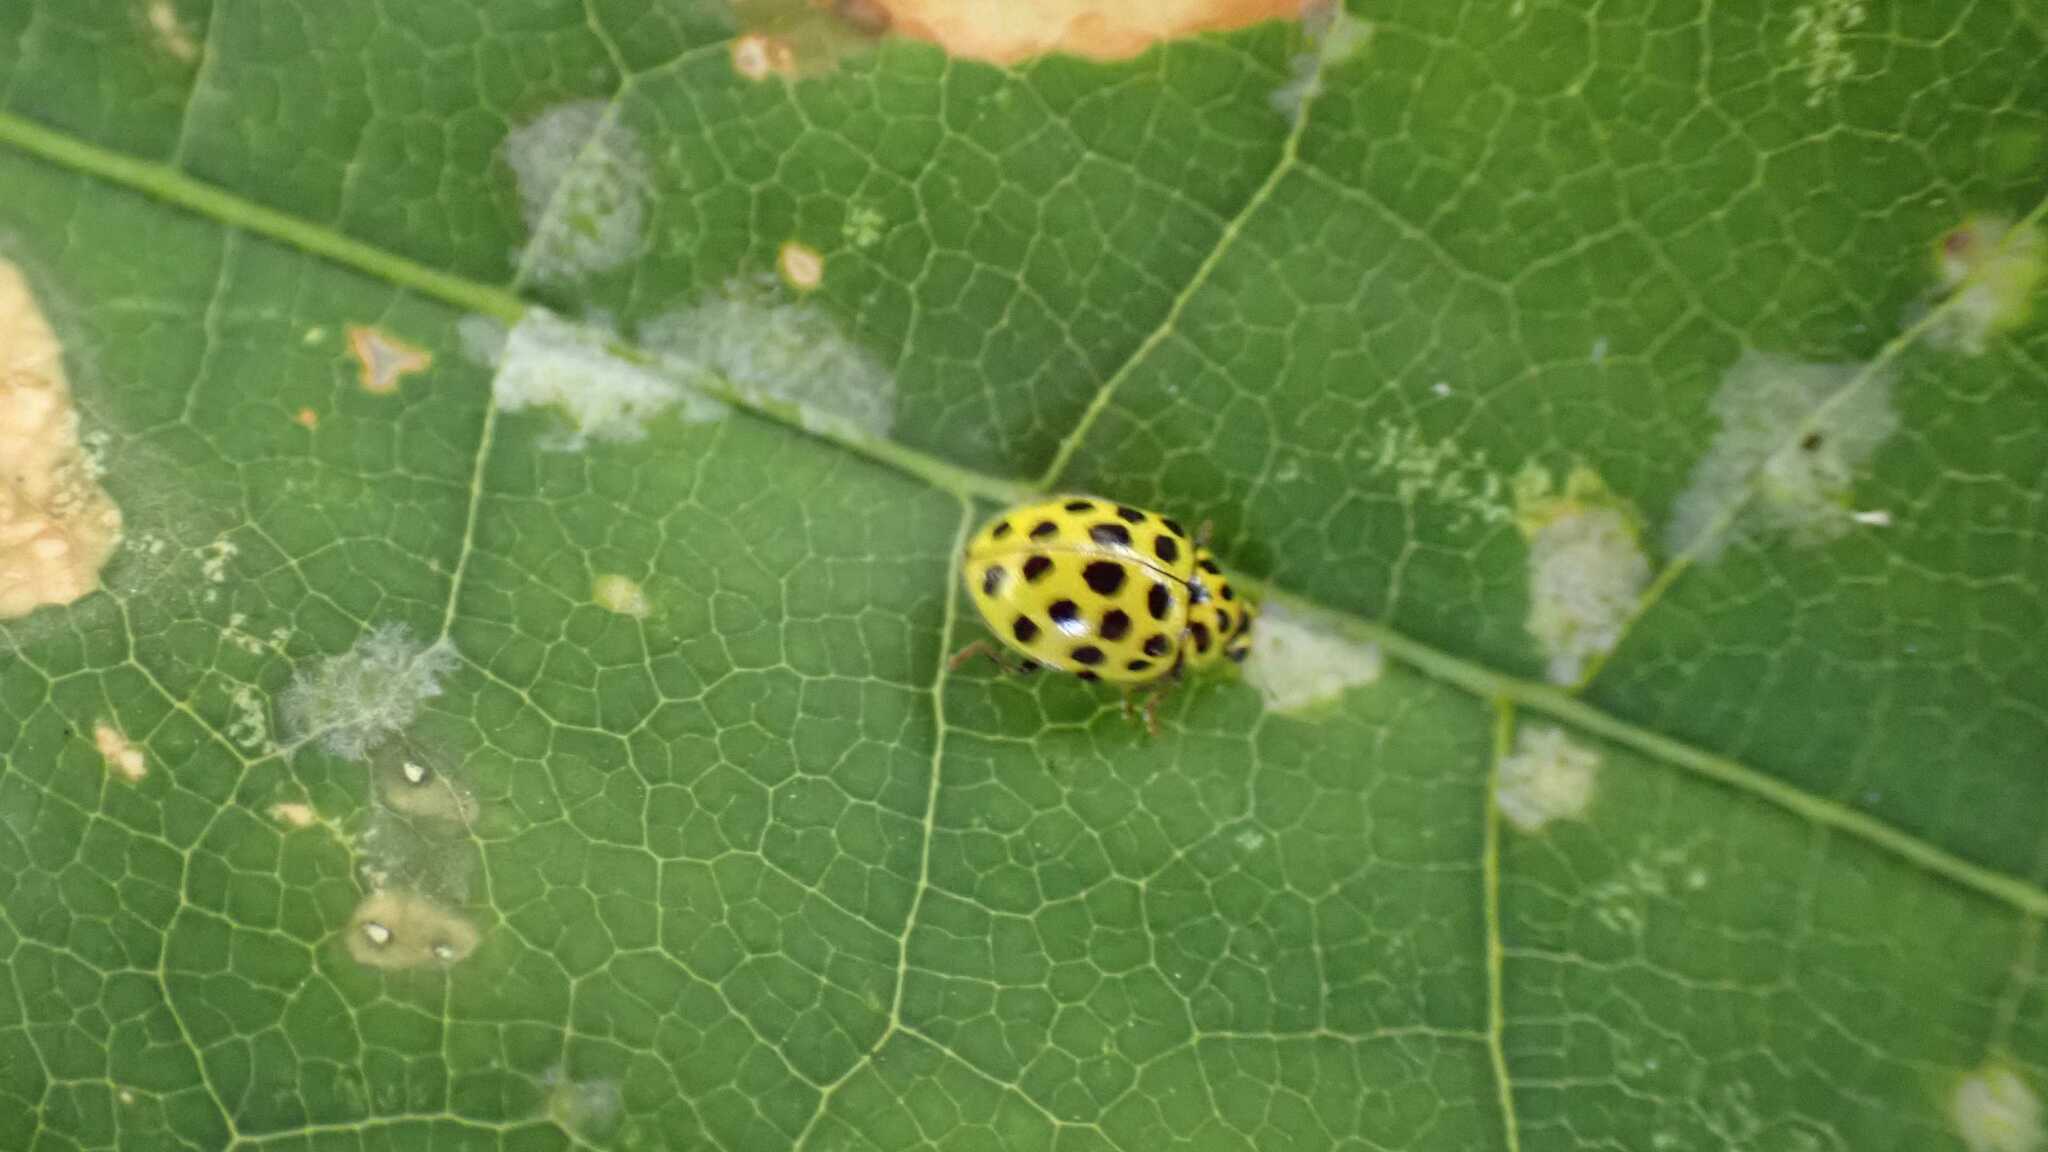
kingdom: Animalia
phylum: Arthropoda
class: Insecta
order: Coleoptera
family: Coccinellidae
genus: Psyllobora
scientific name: Psyllobora vigintiduopunctata
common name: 22-spot ladybird
